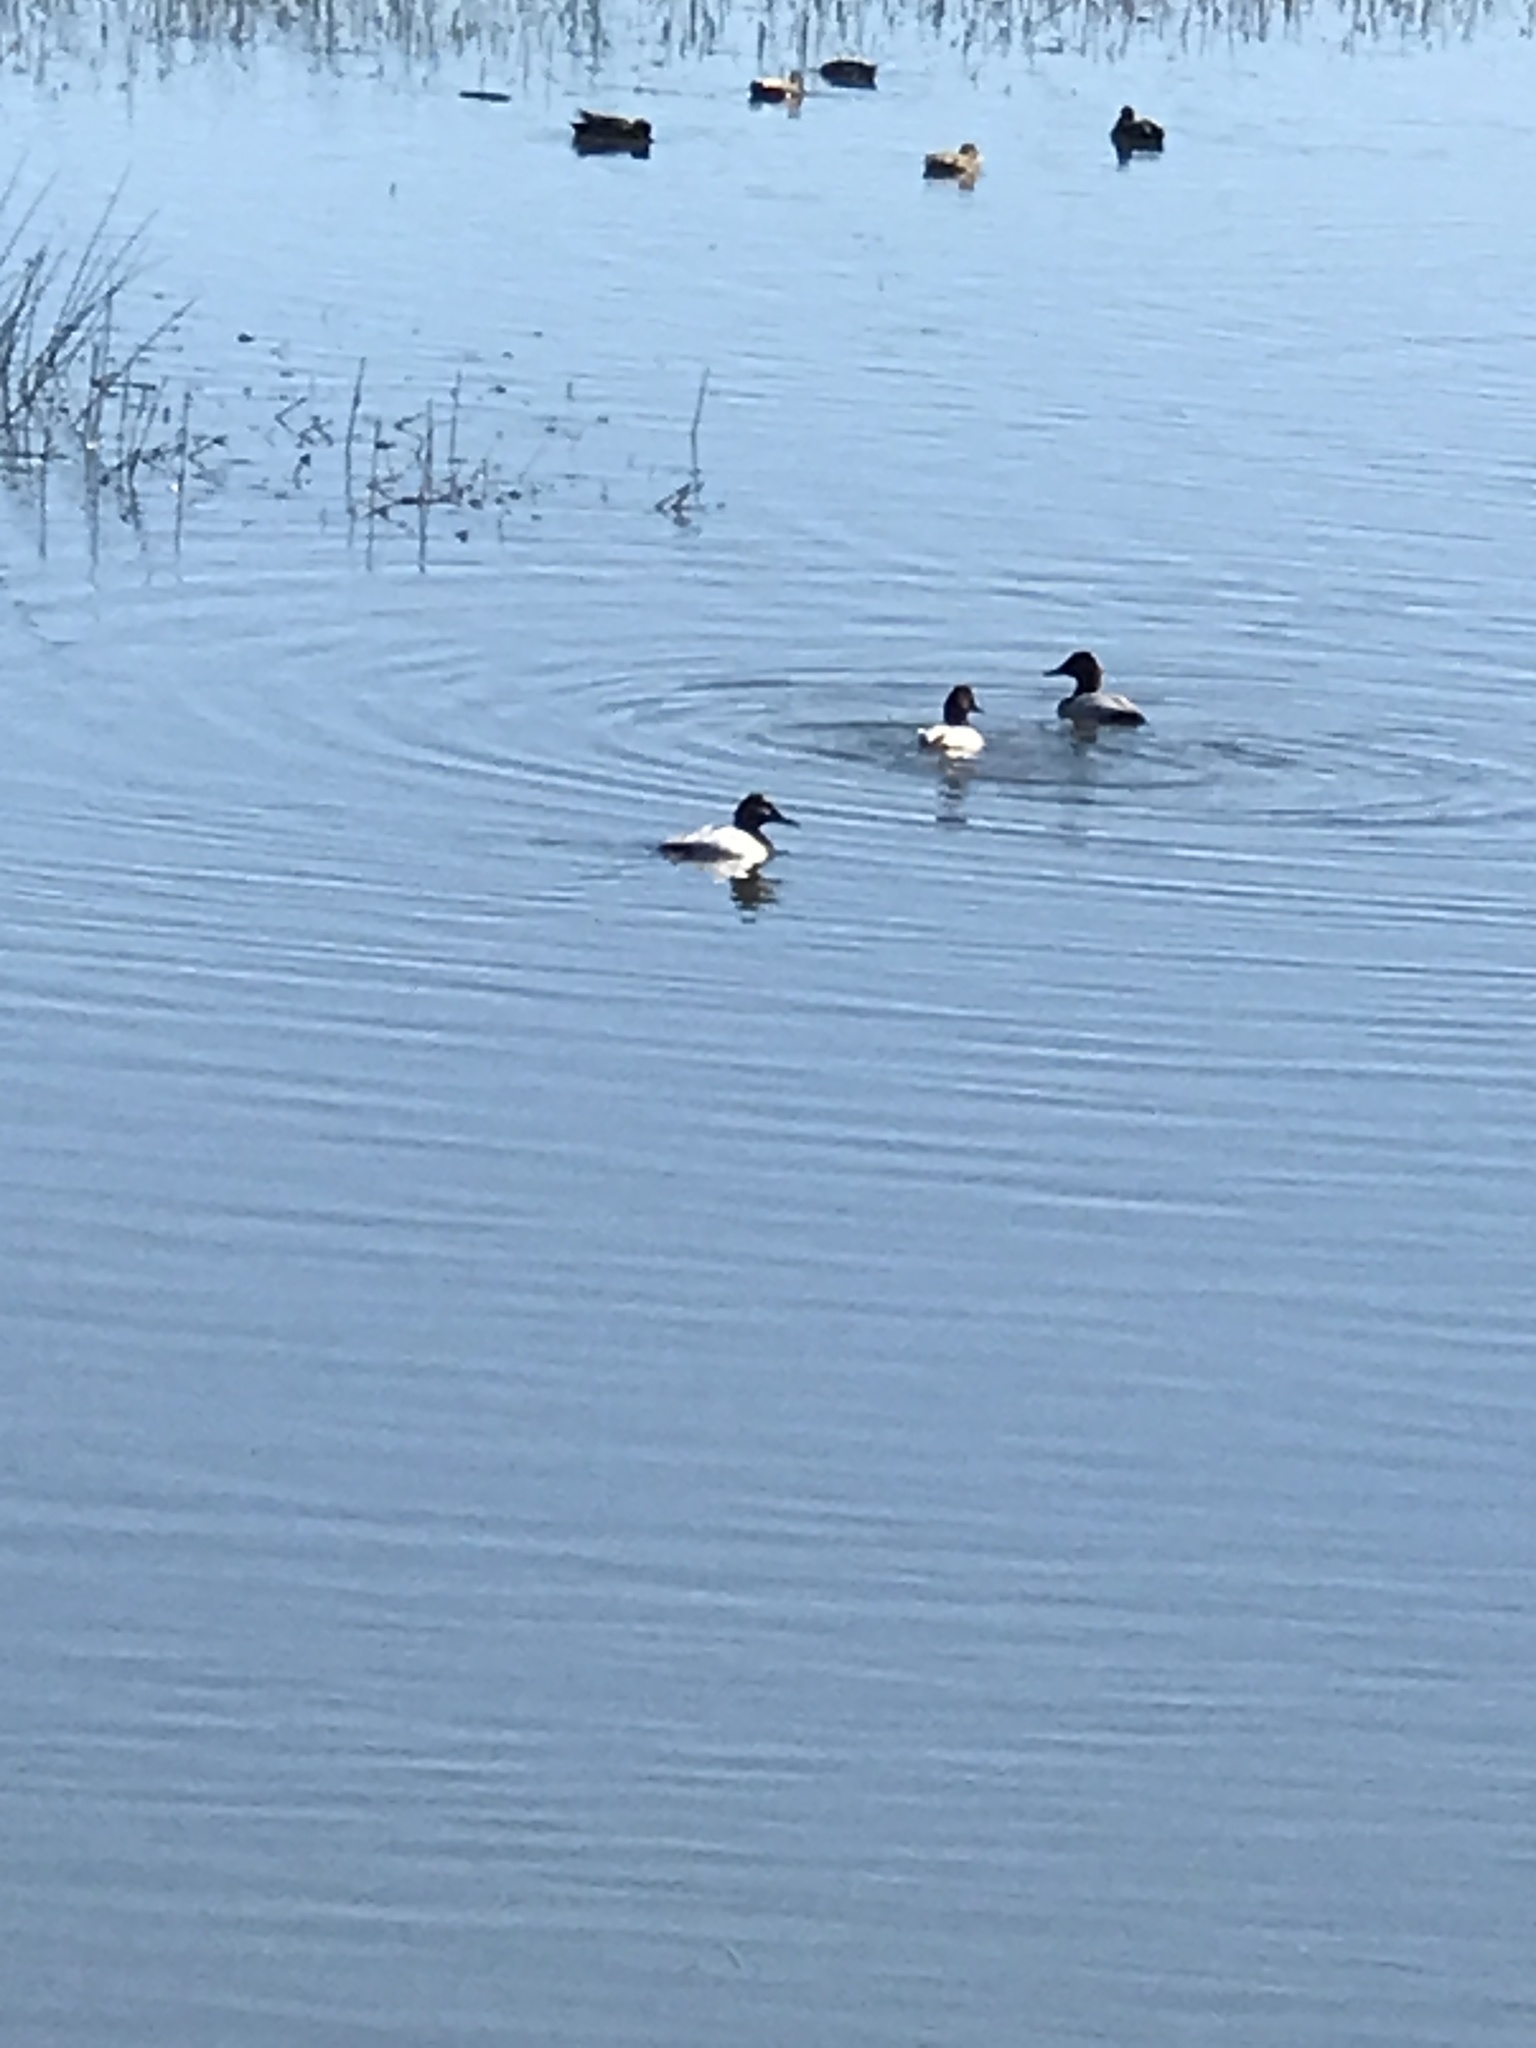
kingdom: Animalia
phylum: Chordata
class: Aves
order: Anseriformes
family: Anatidae
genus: Aythya
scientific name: Aythya valisineria
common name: Canvasback
